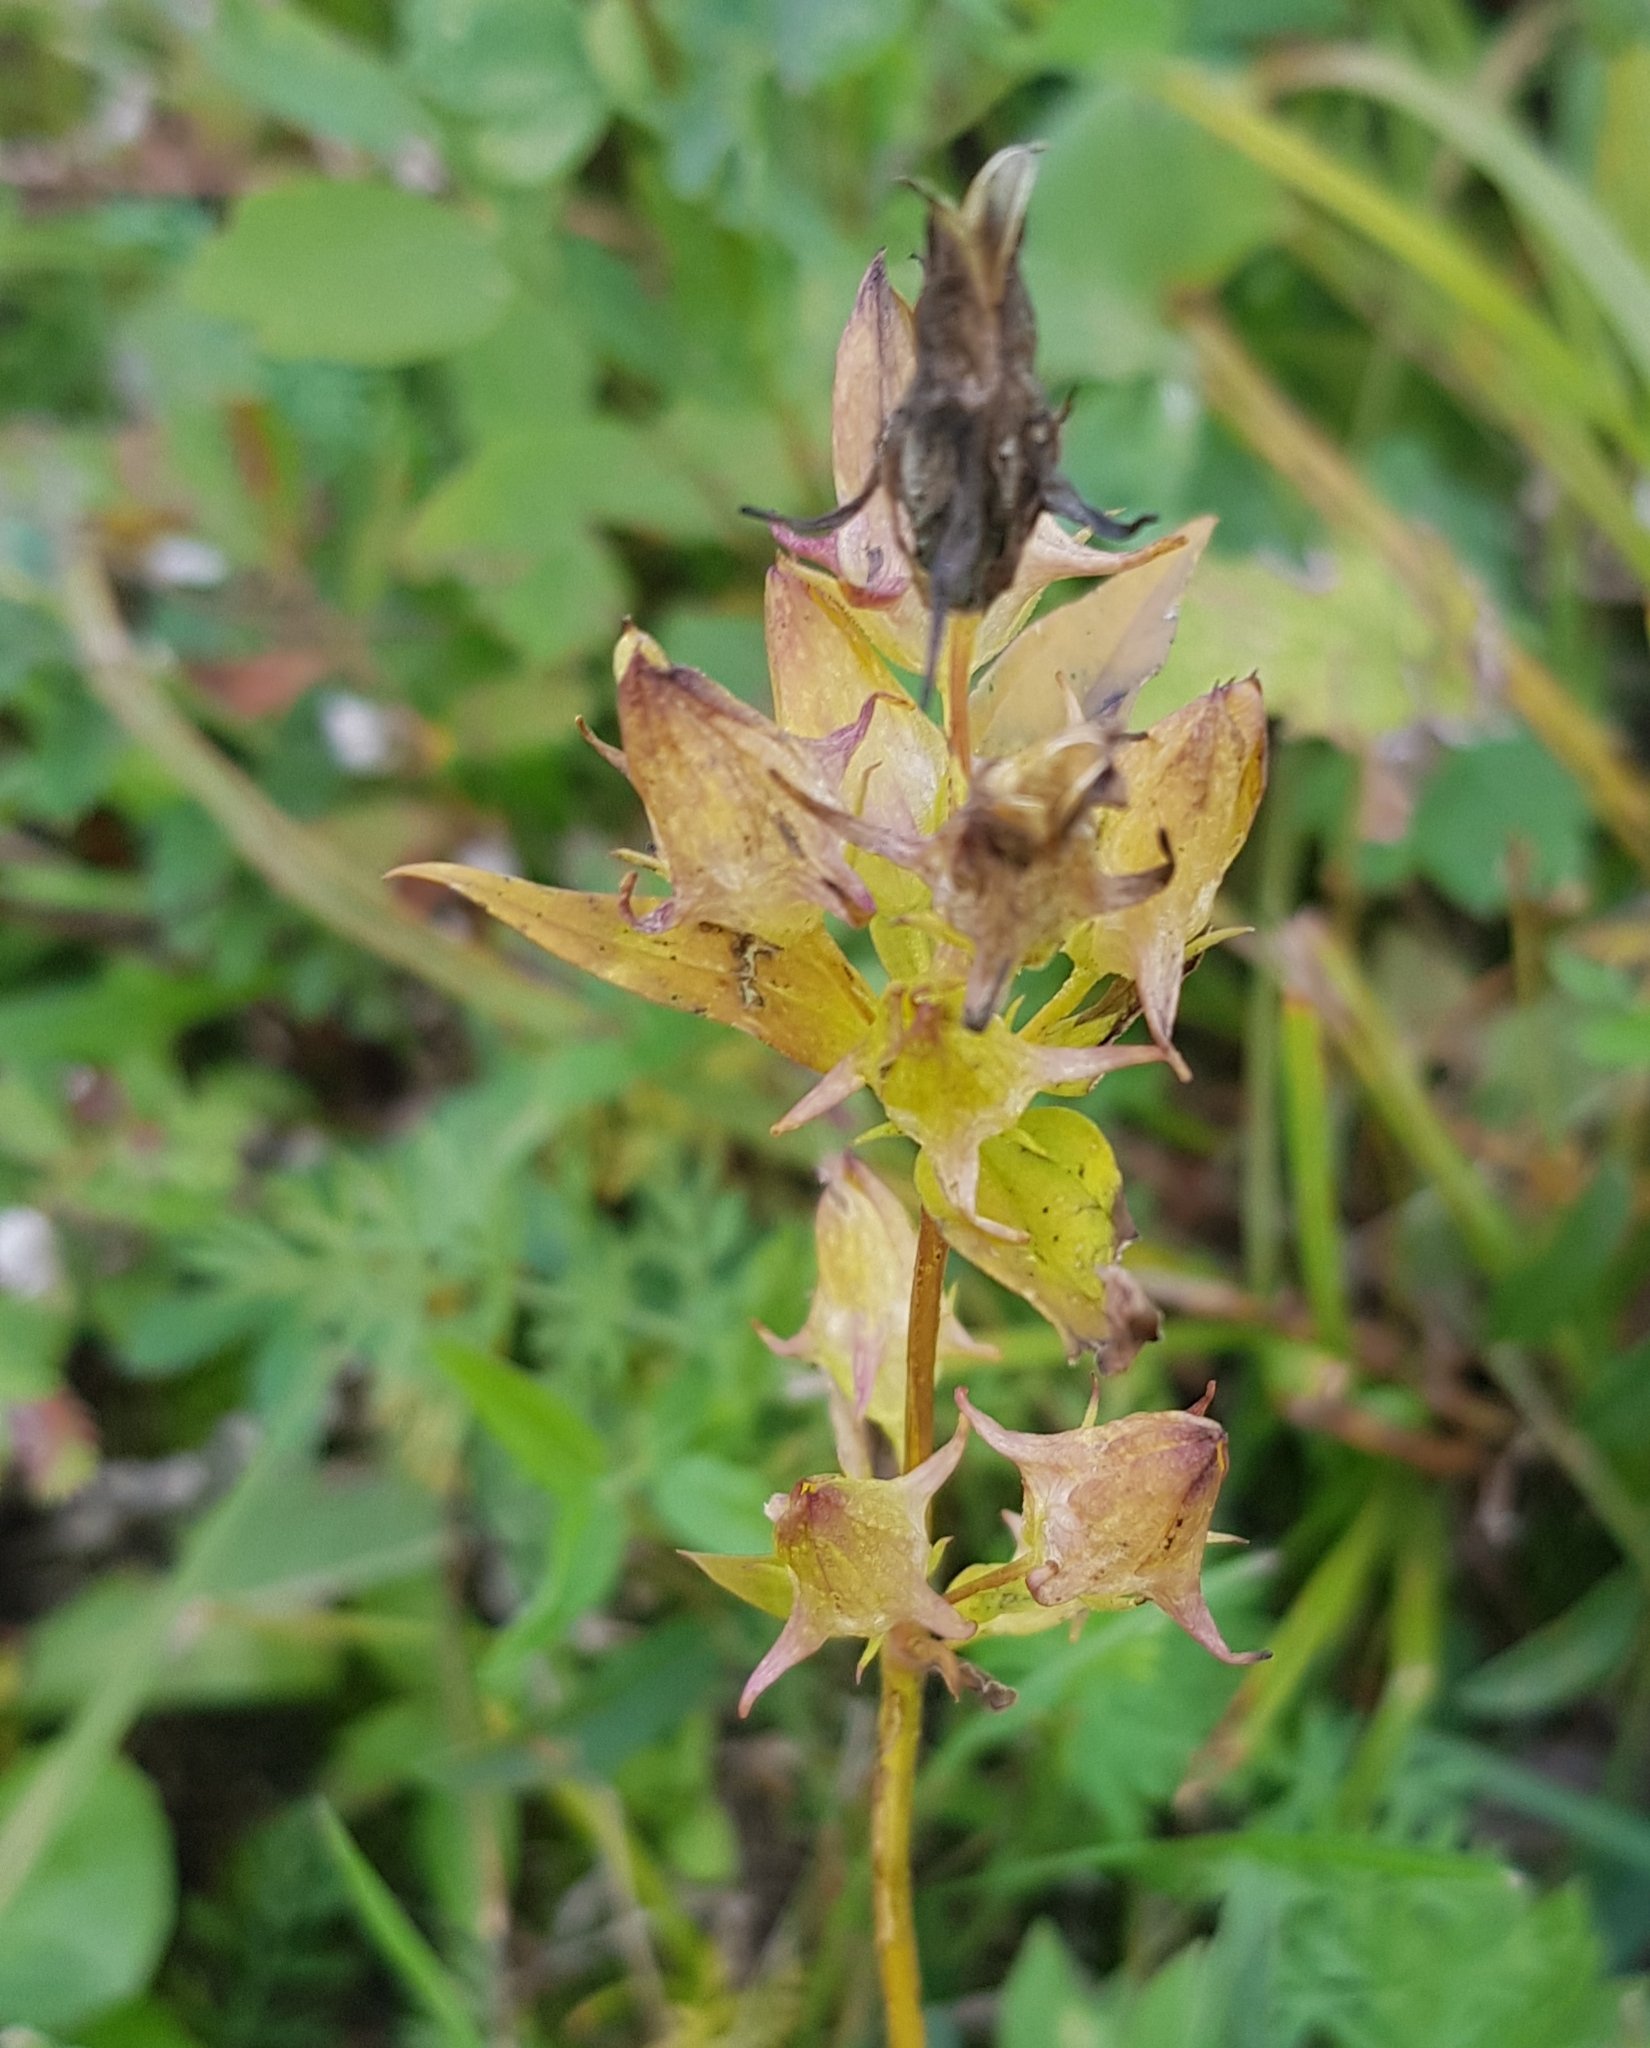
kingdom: Plantae
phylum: Tracheophyta
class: Magnoliopsida
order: Gentianales
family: Gentianaceae
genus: Halenia
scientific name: Halenia corniculata
